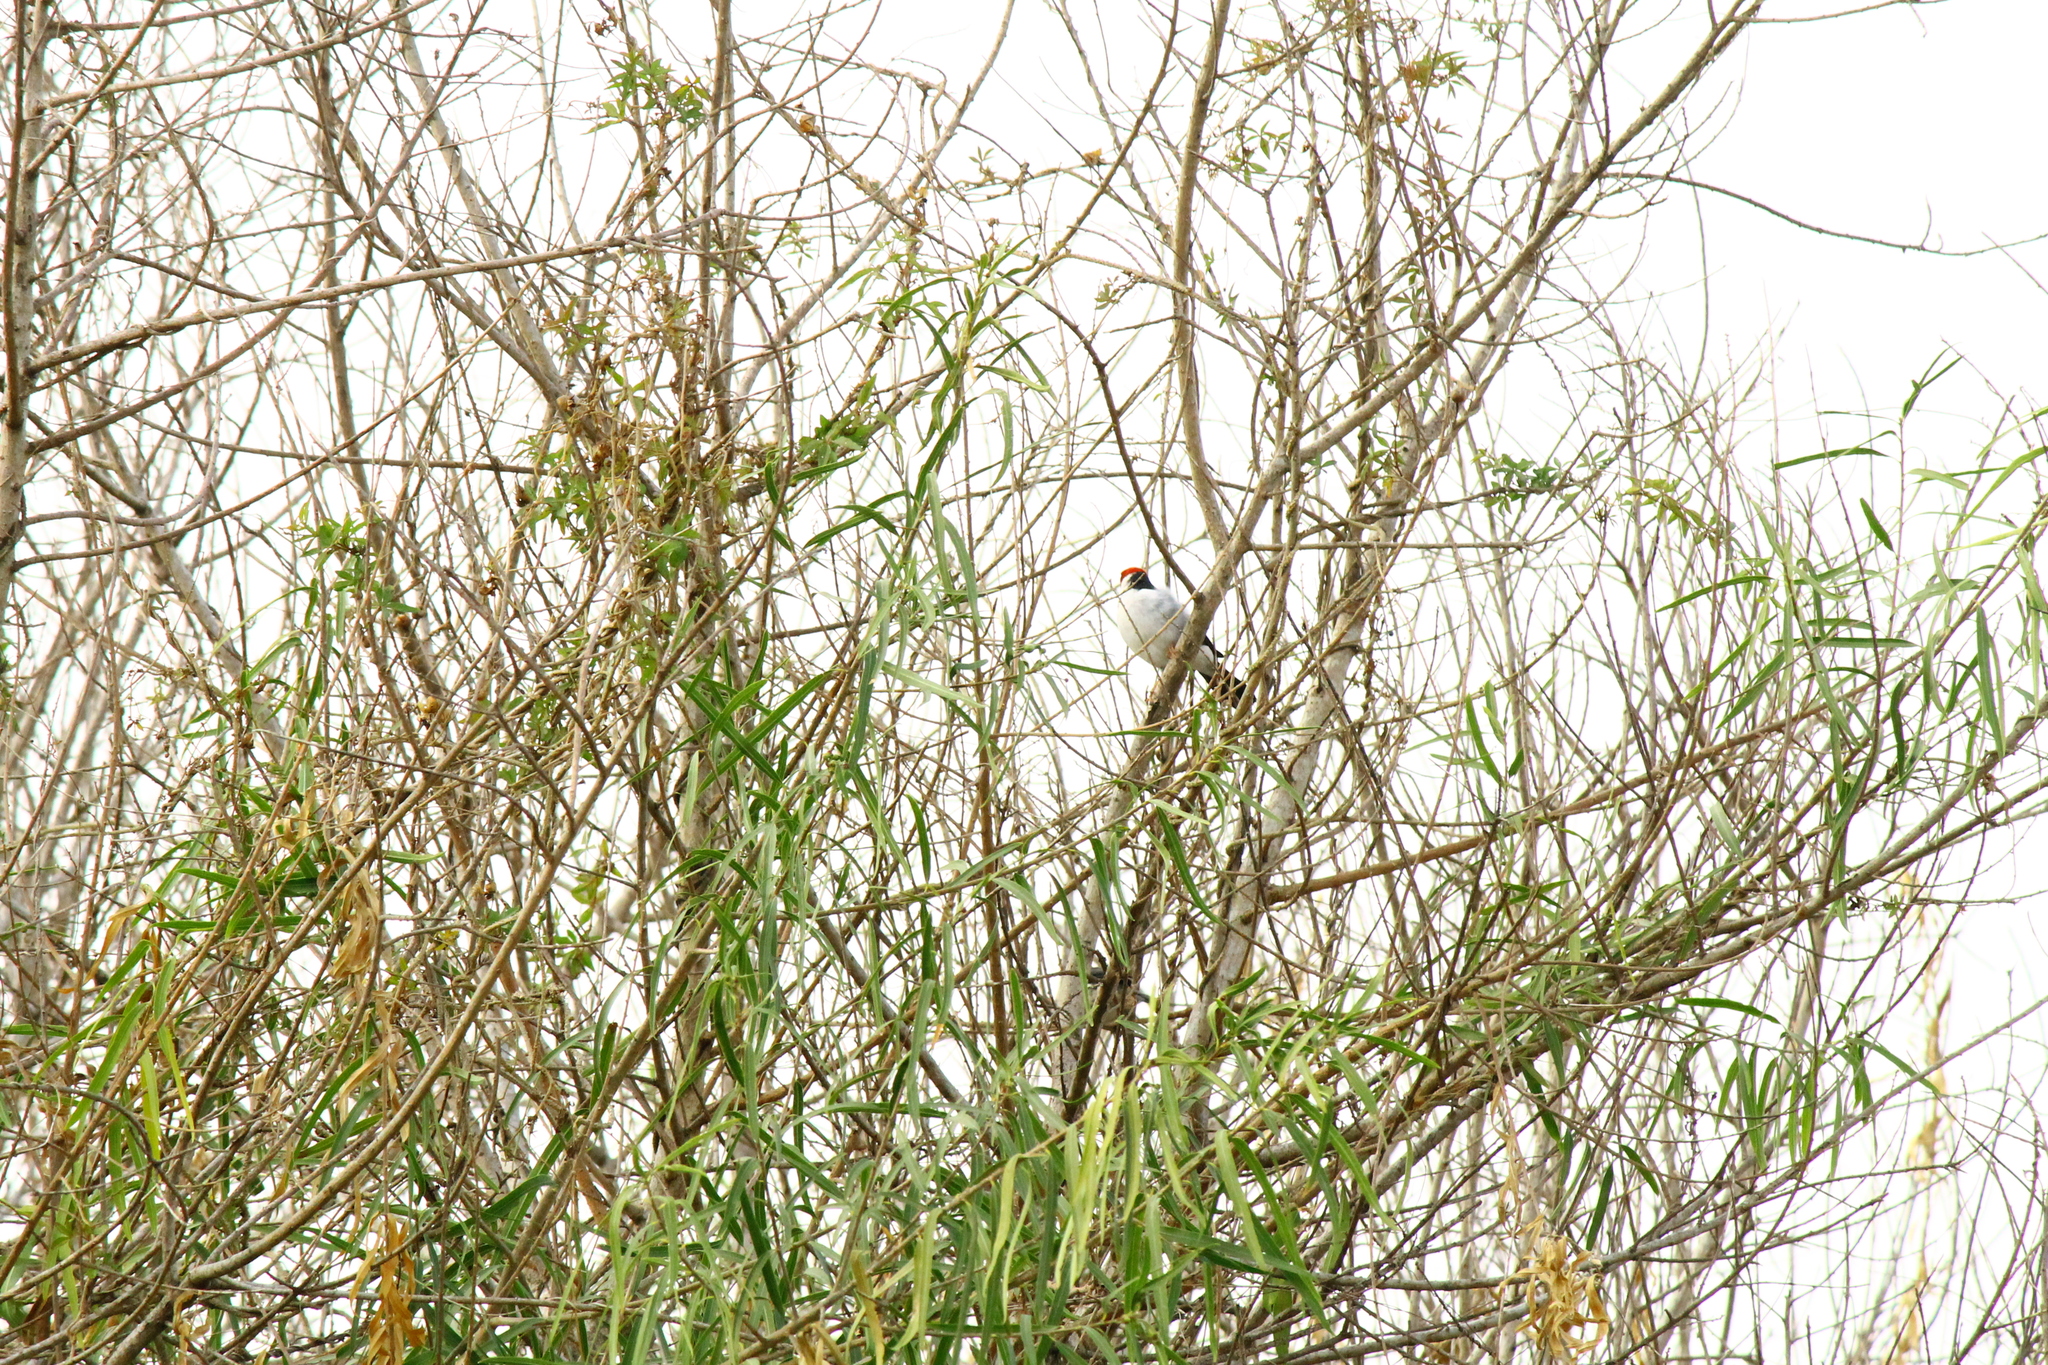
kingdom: Animalia
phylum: Chordata
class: Aves
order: Passeriformes
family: Thraupidae
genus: Paroaria
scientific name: Paroaria capitata
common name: Yellow-billed cardinal
